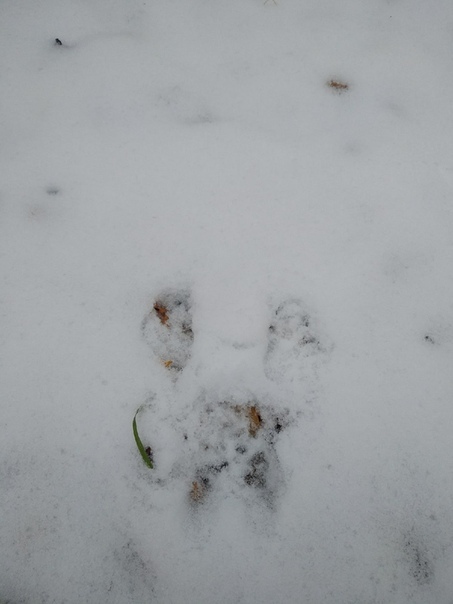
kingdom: Animalia
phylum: Chordata
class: Mammalia
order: Rodentia
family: Sciuridae
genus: Sciurus
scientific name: Sciurus vulgaris
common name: Eurasian red squirrel
